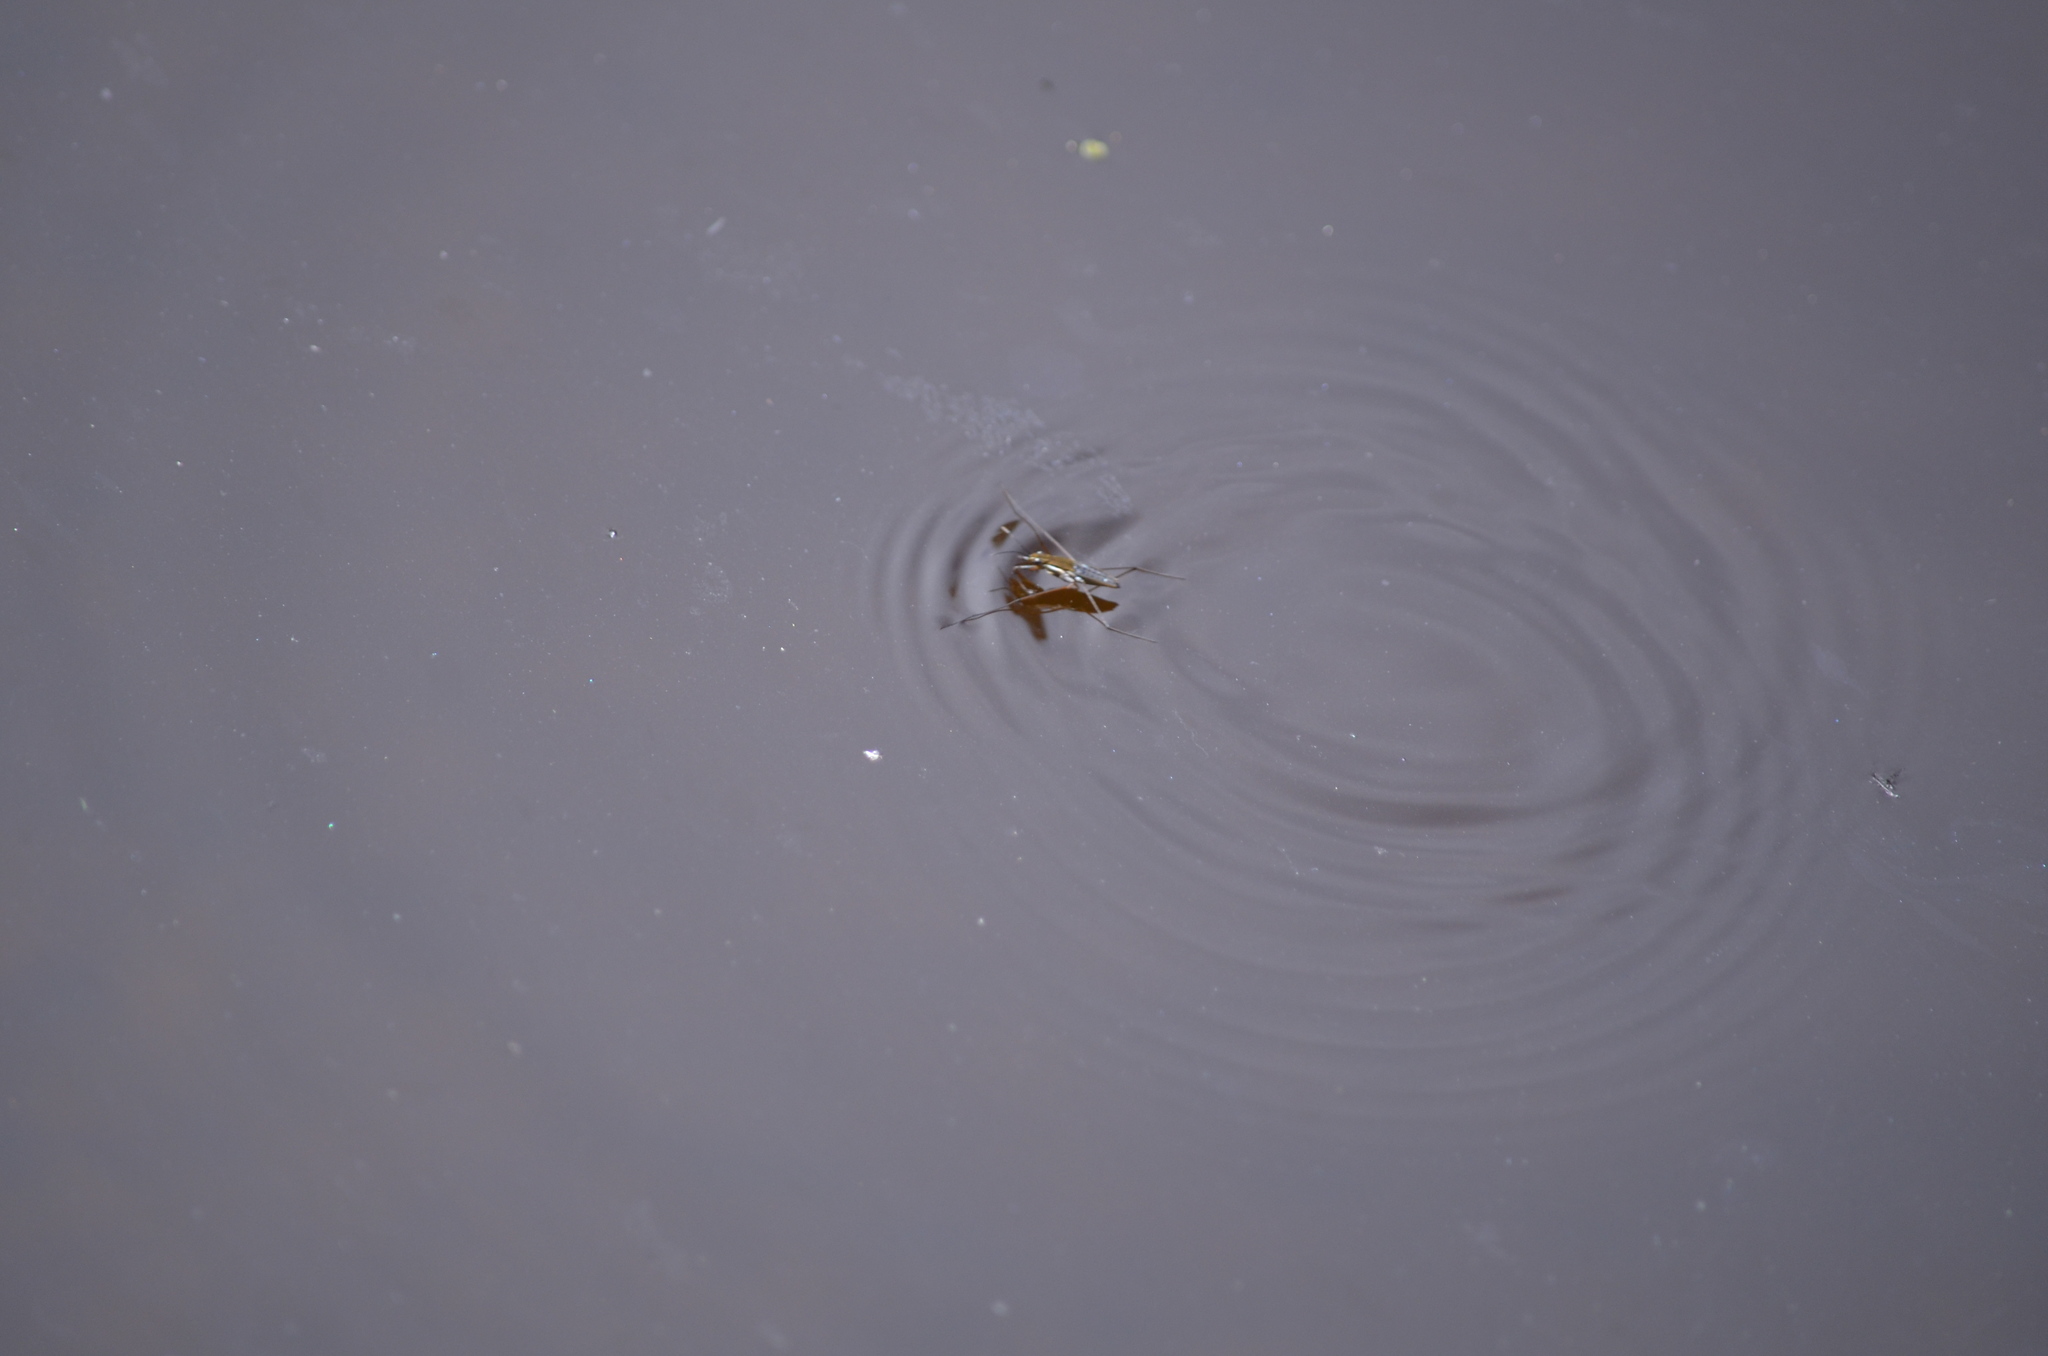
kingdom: Animalia
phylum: Arthropoda
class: Insecta
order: Hemiptera
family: Gerridae
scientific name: Gerridae
